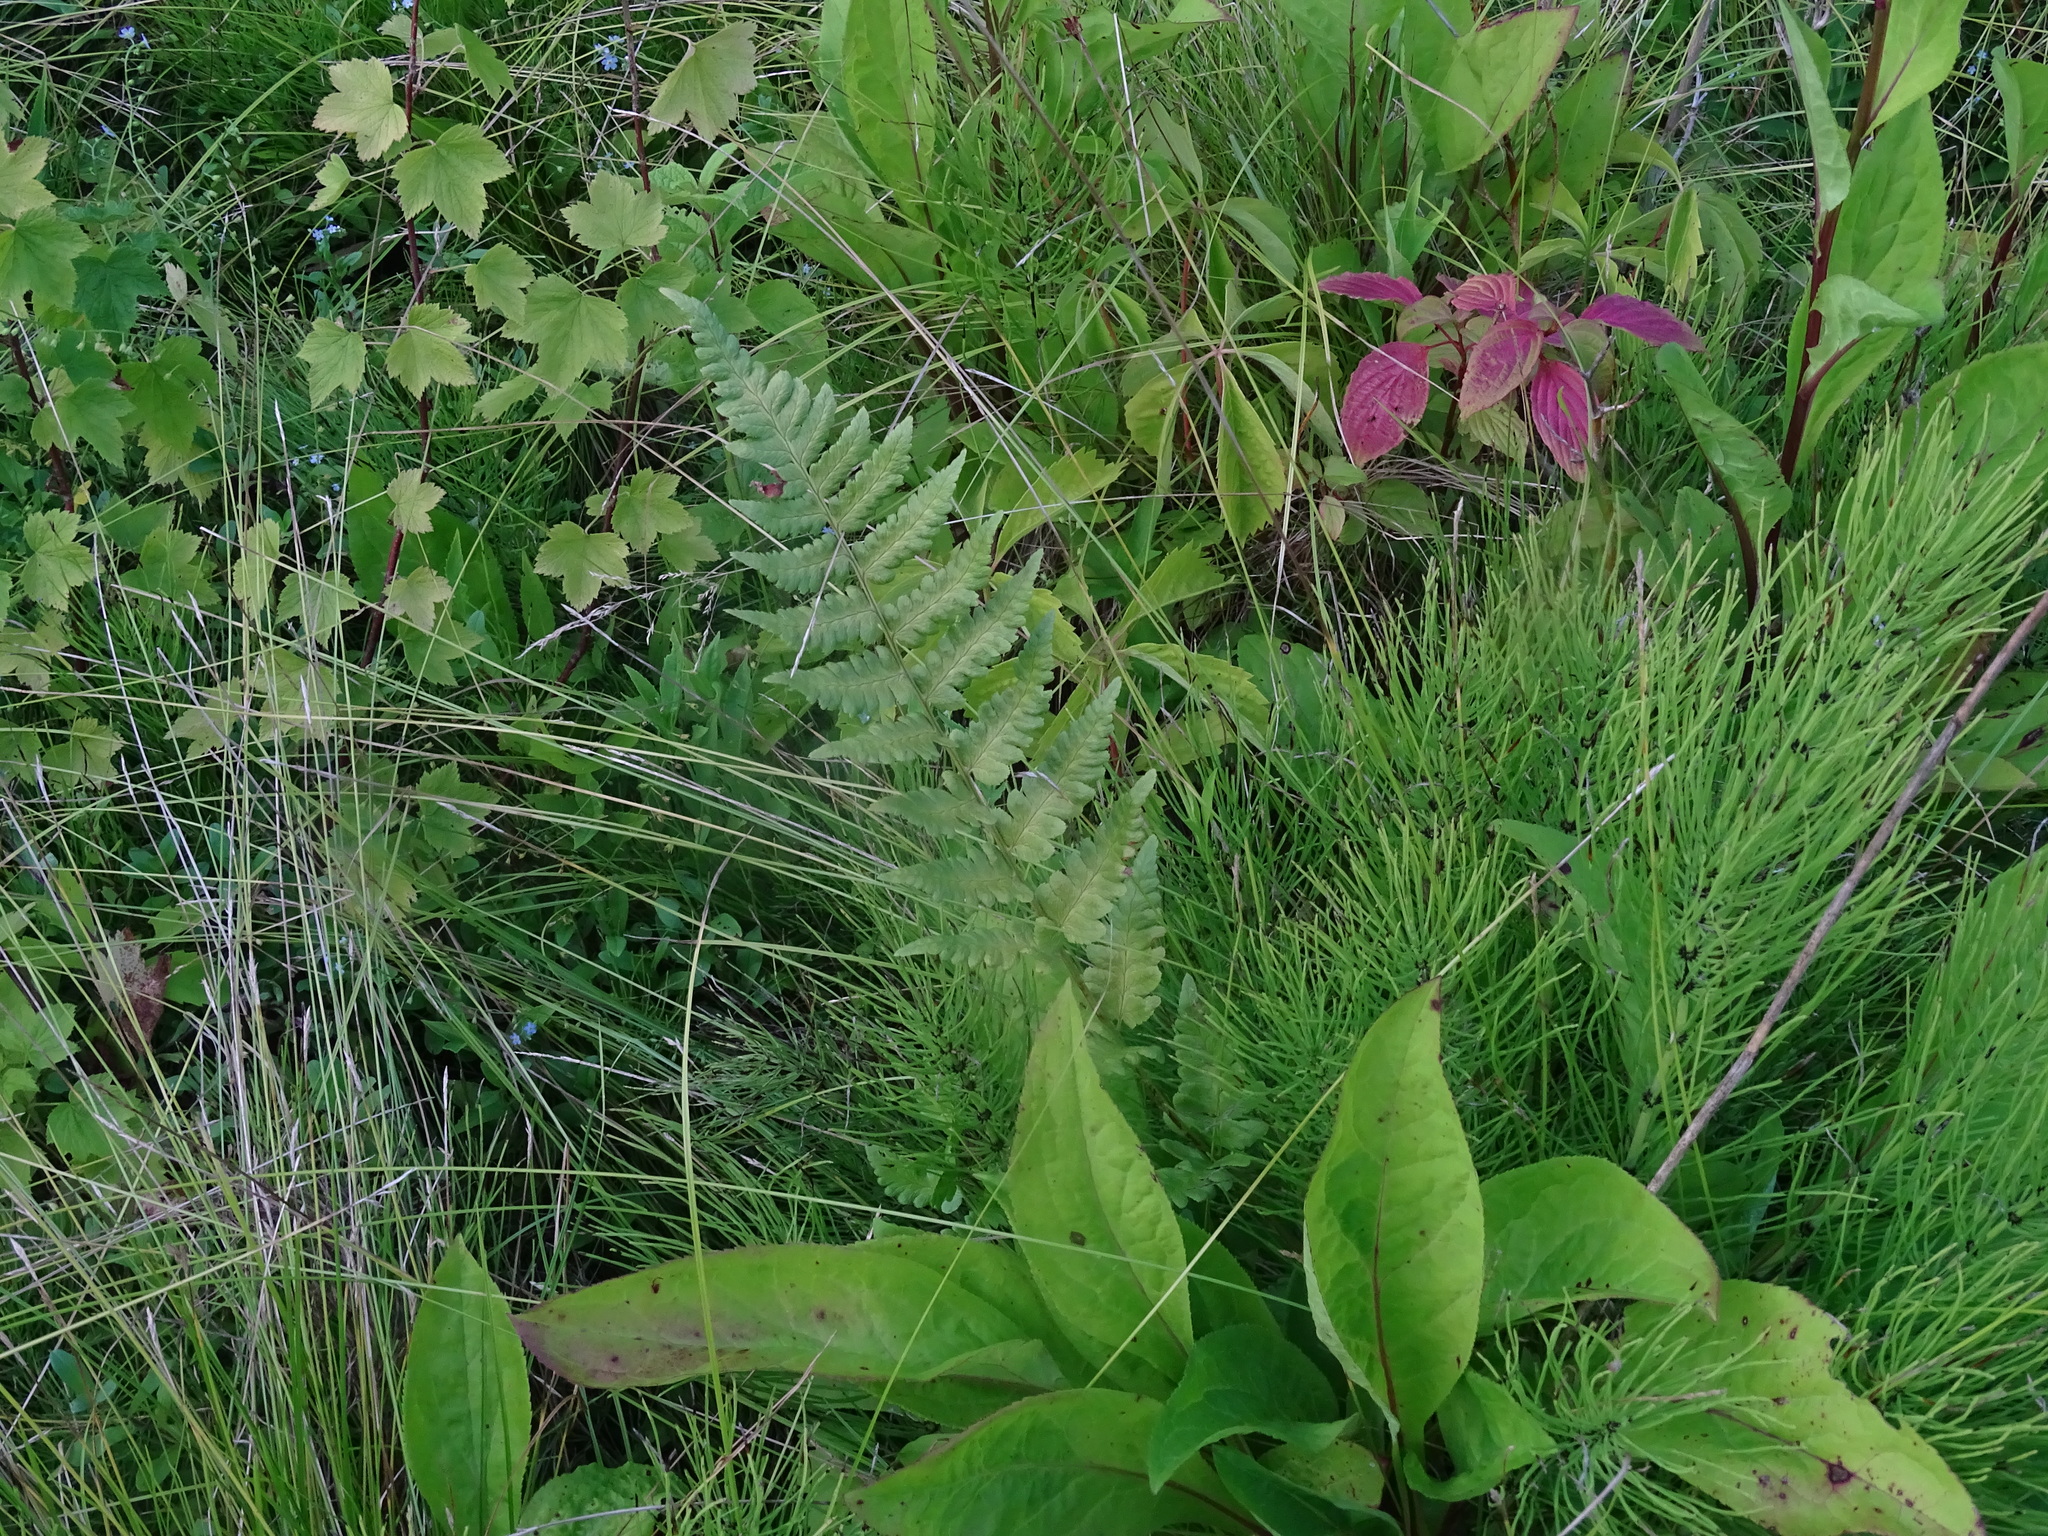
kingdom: Plantae
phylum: Tracheophyta
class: Polypodiopsida
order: Polypodiales
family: Dryopteridaceae
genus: Dryopteris
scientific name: Dryopteris cristata
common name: Crested wood fern
